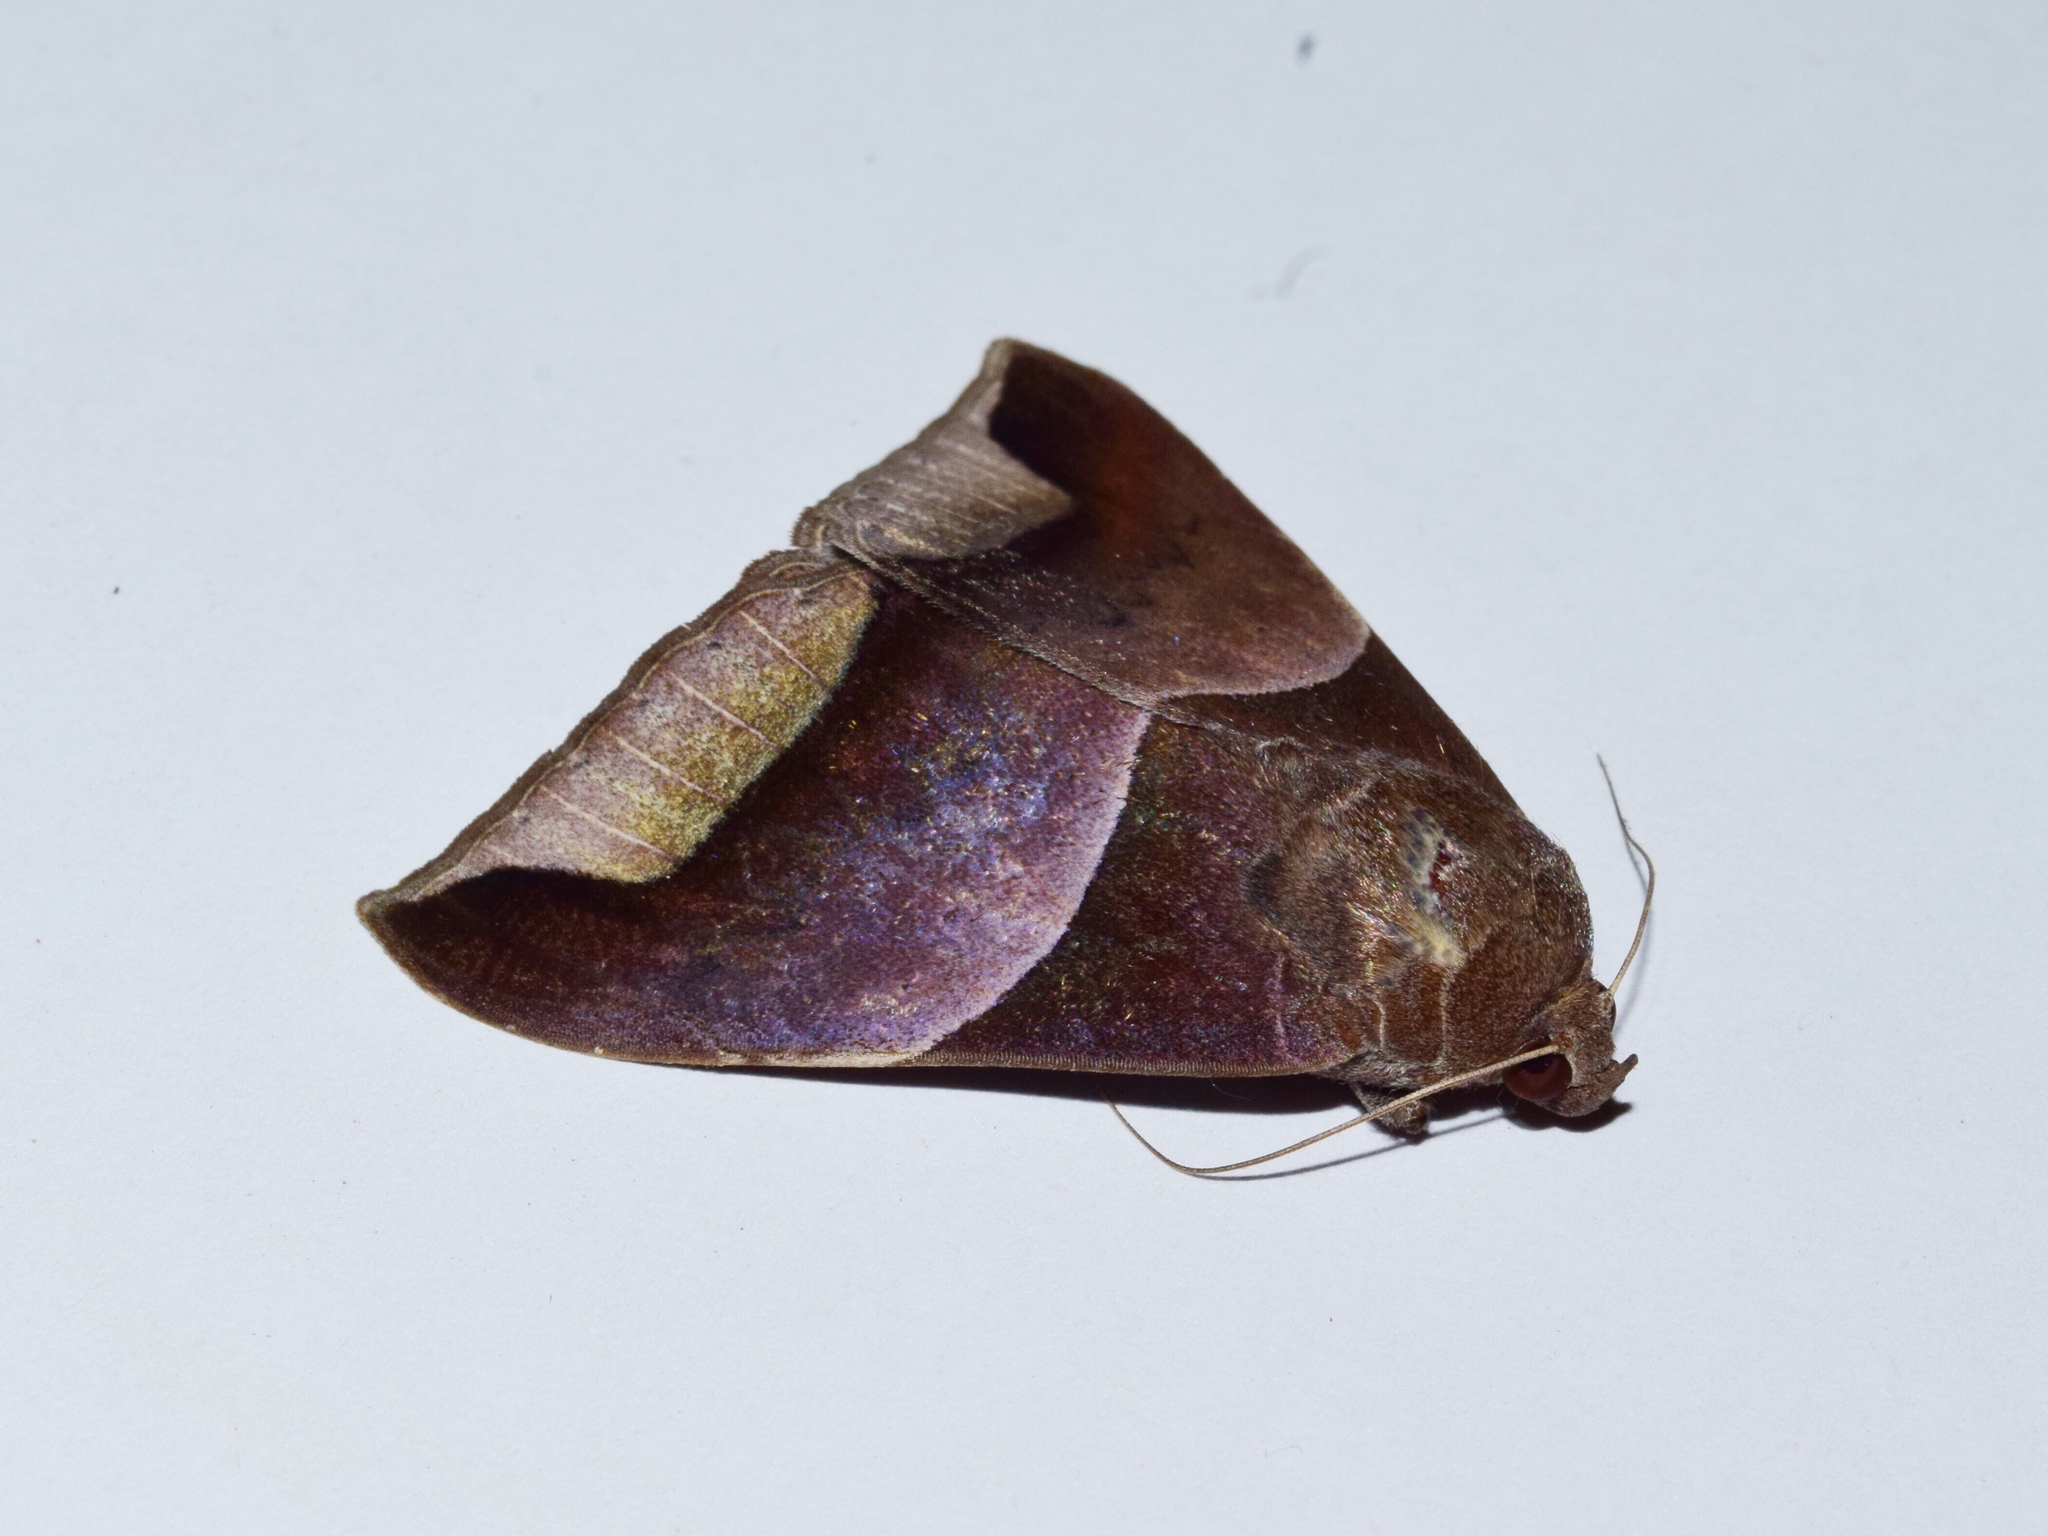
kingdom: Animalia
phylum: Arthropoda
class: Insecta
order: Lepidoptera
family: Erebidae
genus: Achaea
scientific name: Achaea echo
